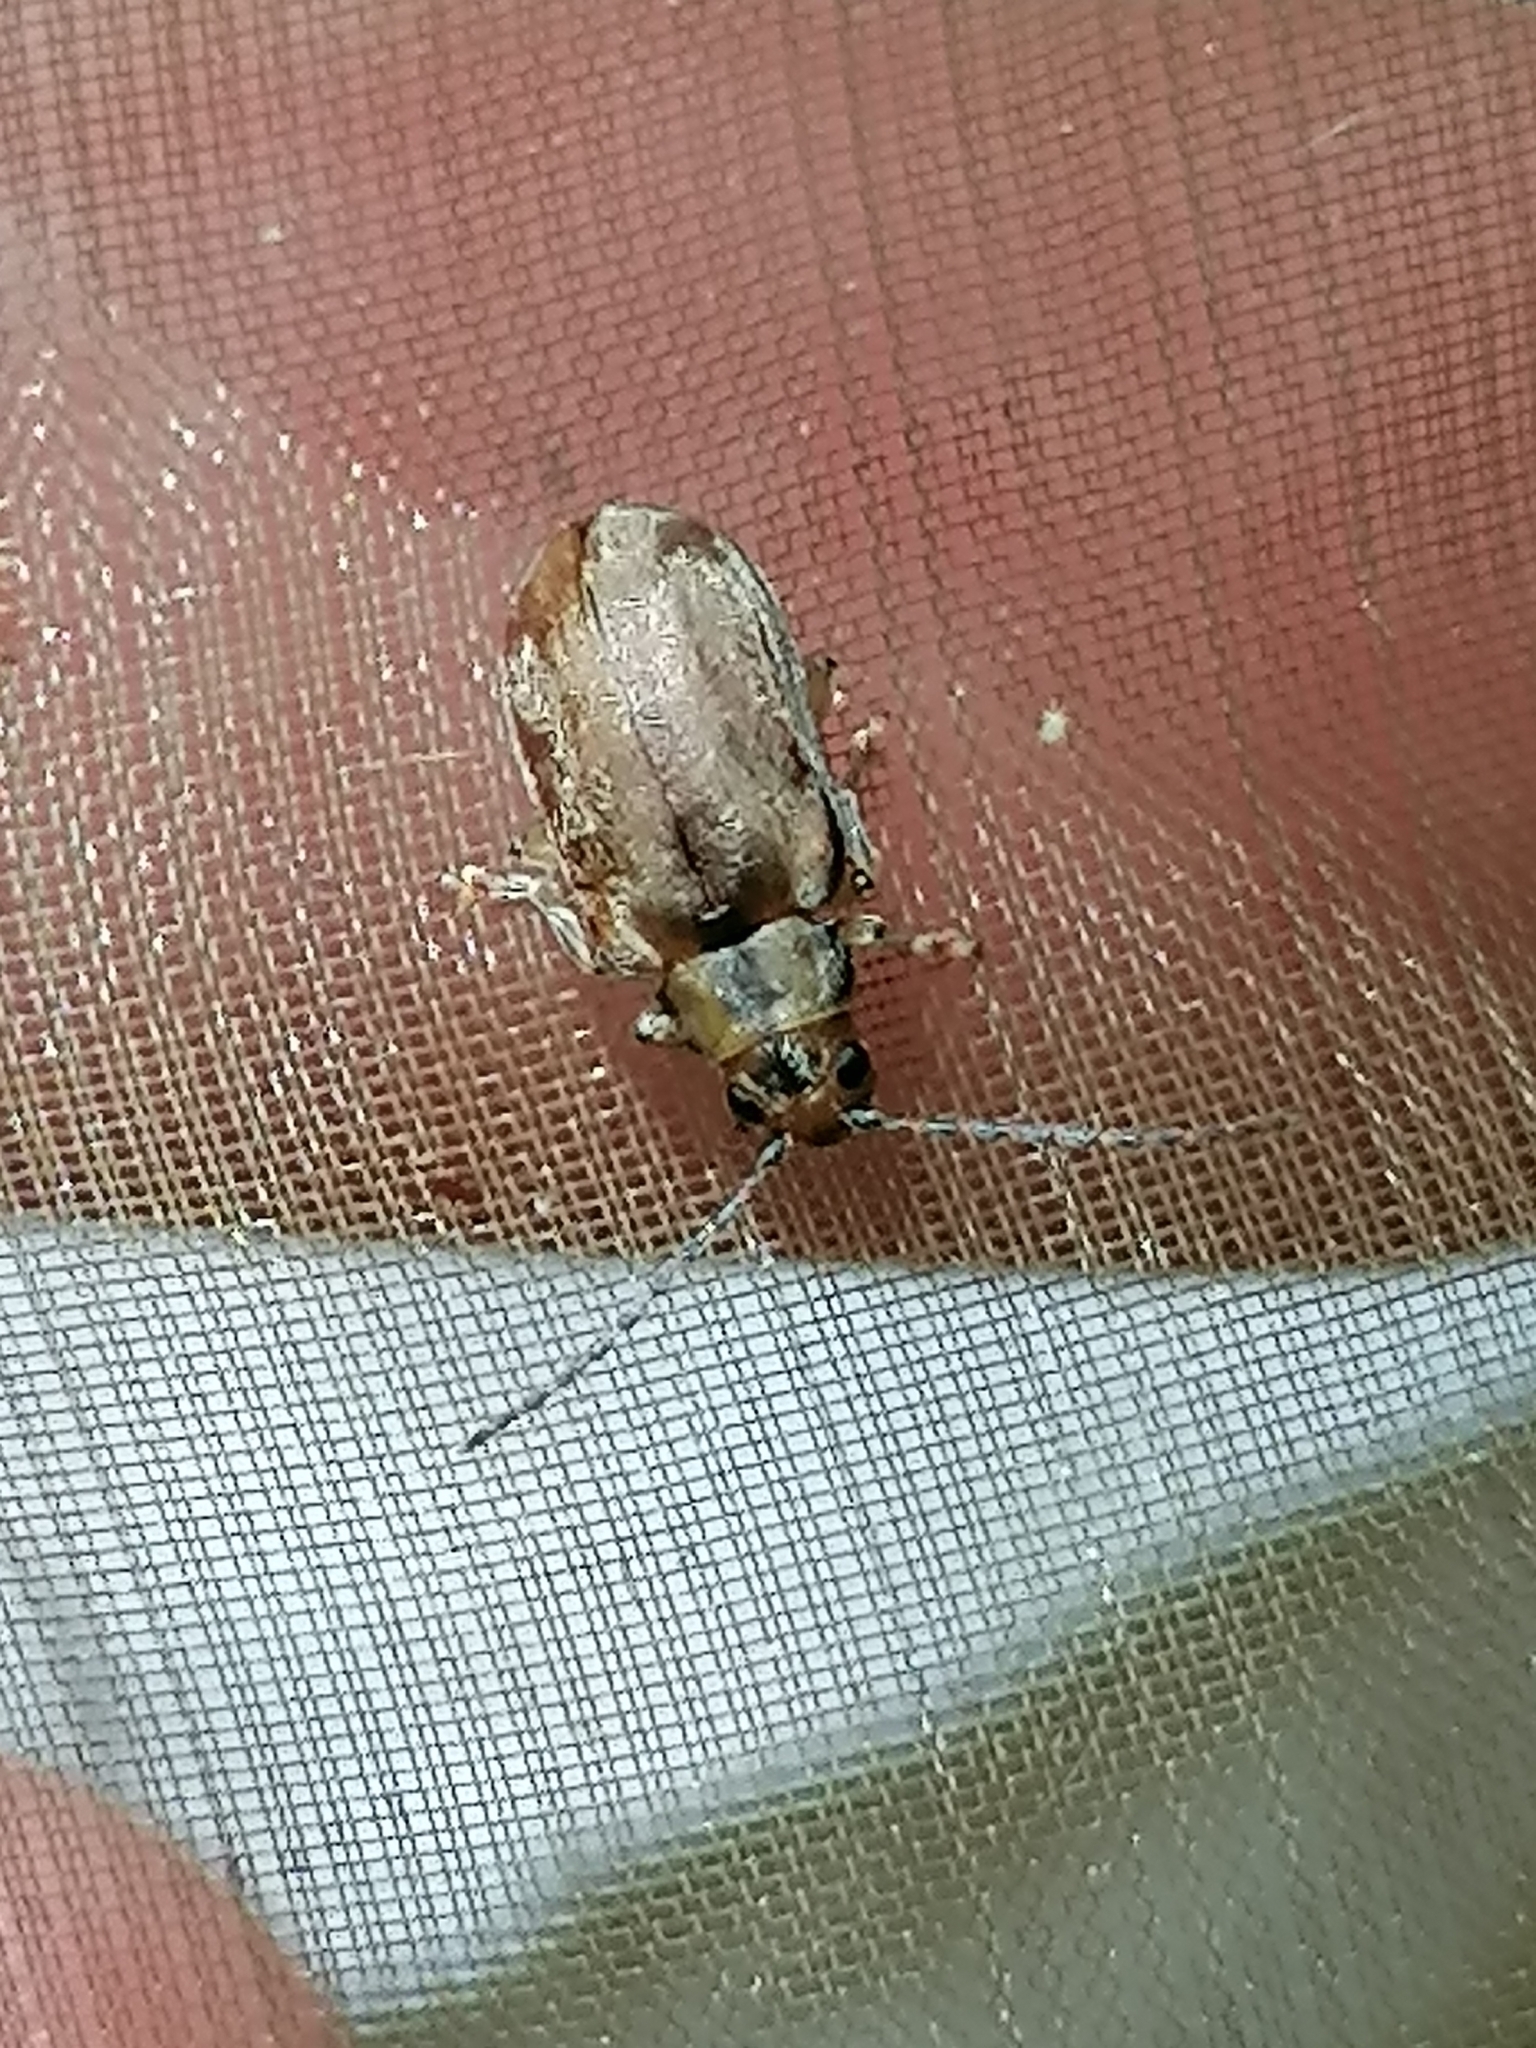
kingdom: Animalia
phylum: Arthropoda
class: Insecta
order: Coleoptera
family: Chrysomelidae
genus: Pyrrhalta
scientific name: Pyrrhalta viburni
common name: Guelder-rose leaf beetle
